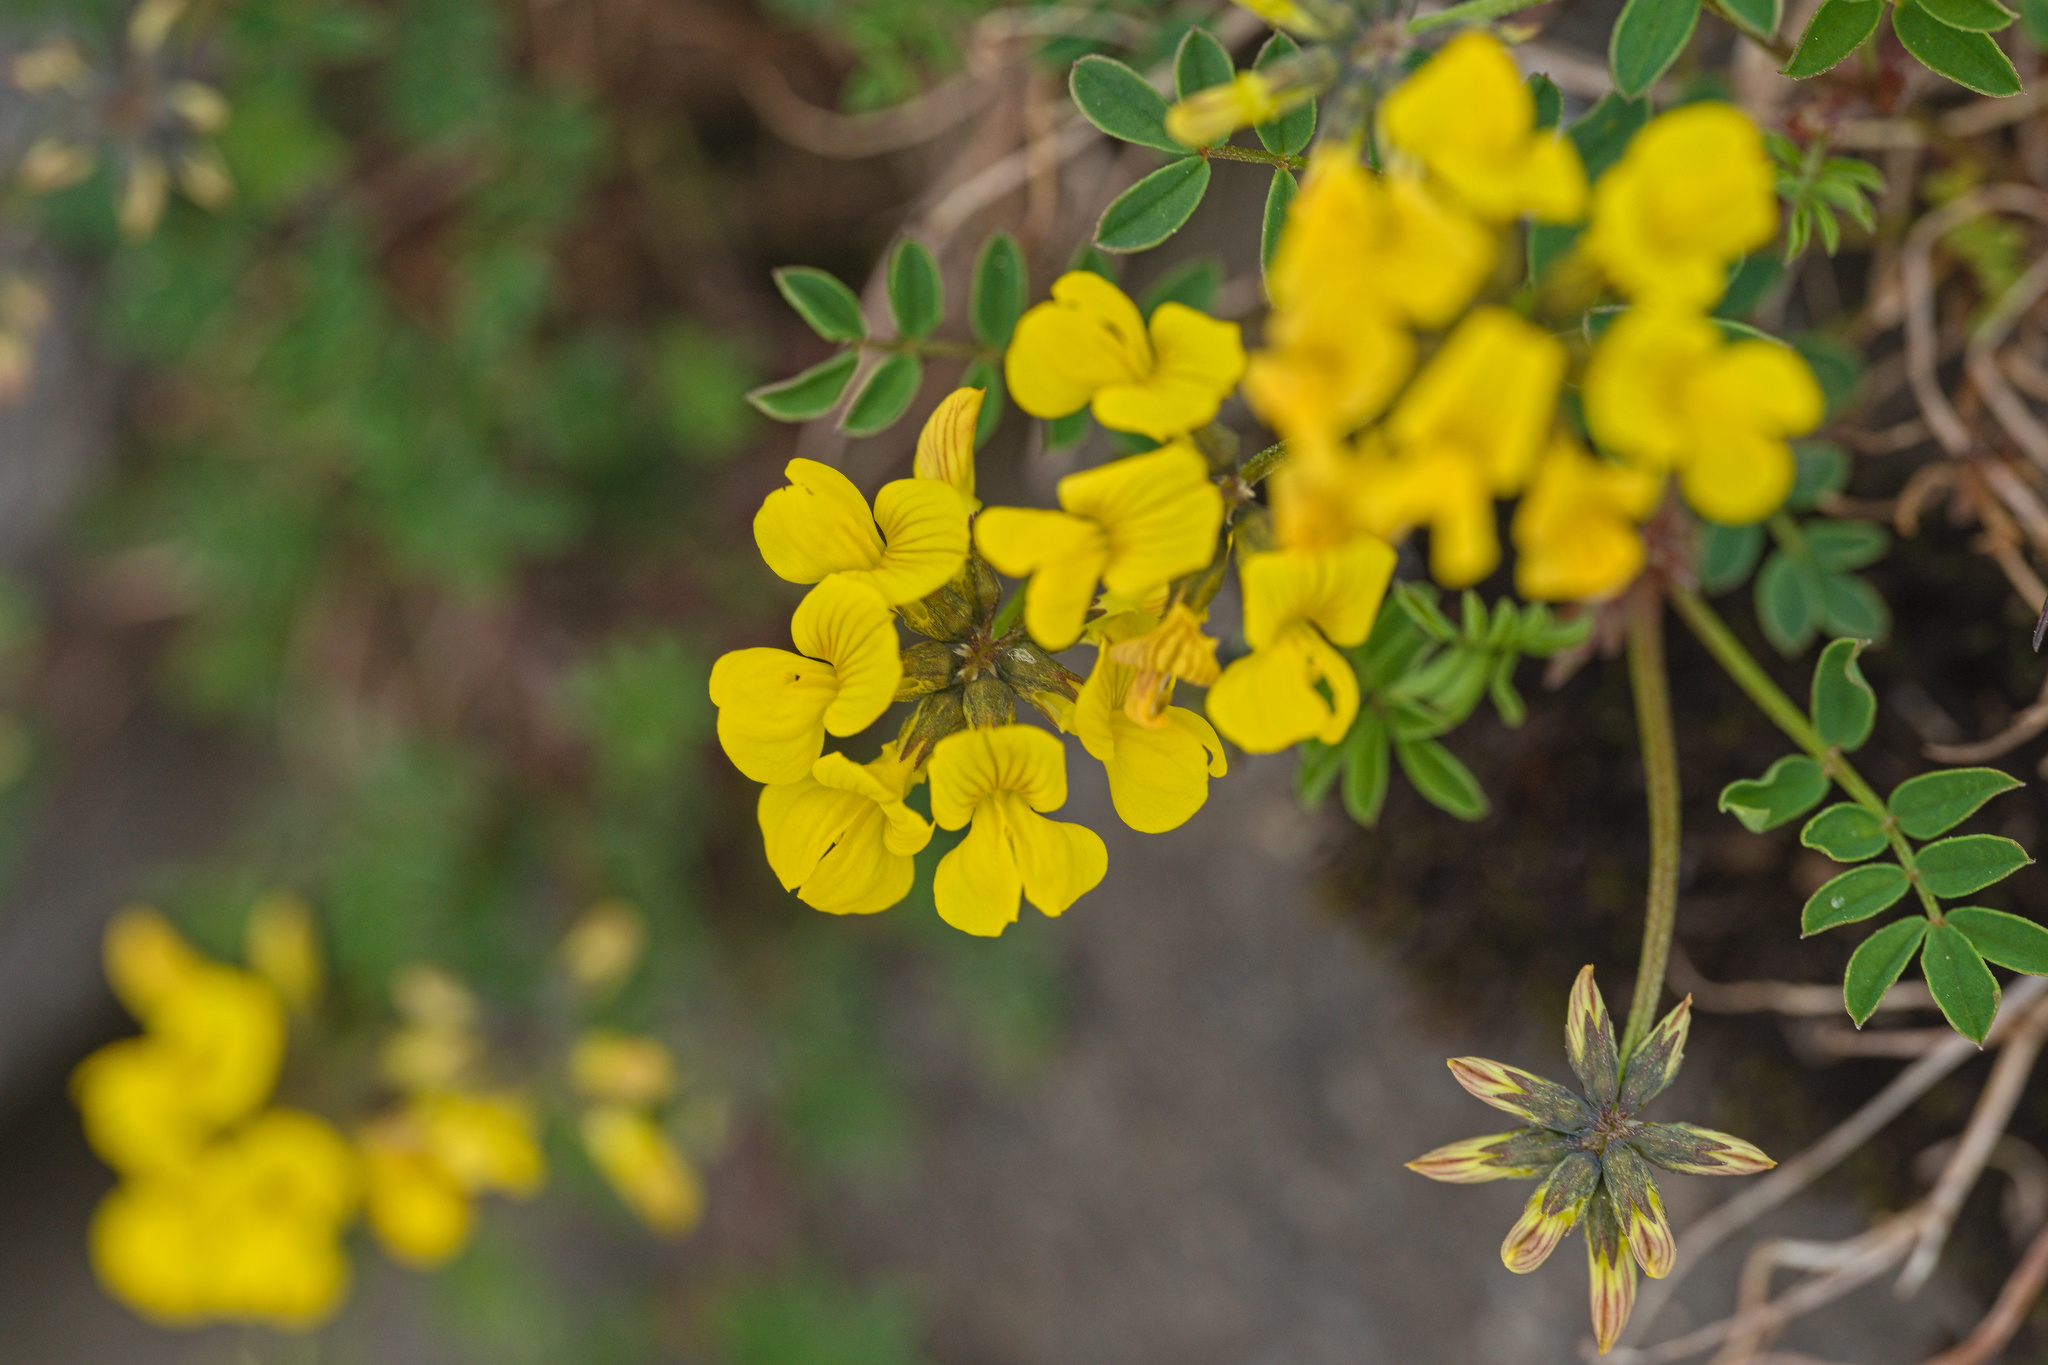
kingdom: Plantae
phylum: Tracheophyta
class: Magnoliopsida
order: Fabales
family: Fabaceae
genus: Hippocrepis
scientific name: Hippocrepis comosa
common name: Horseshoe vetch
